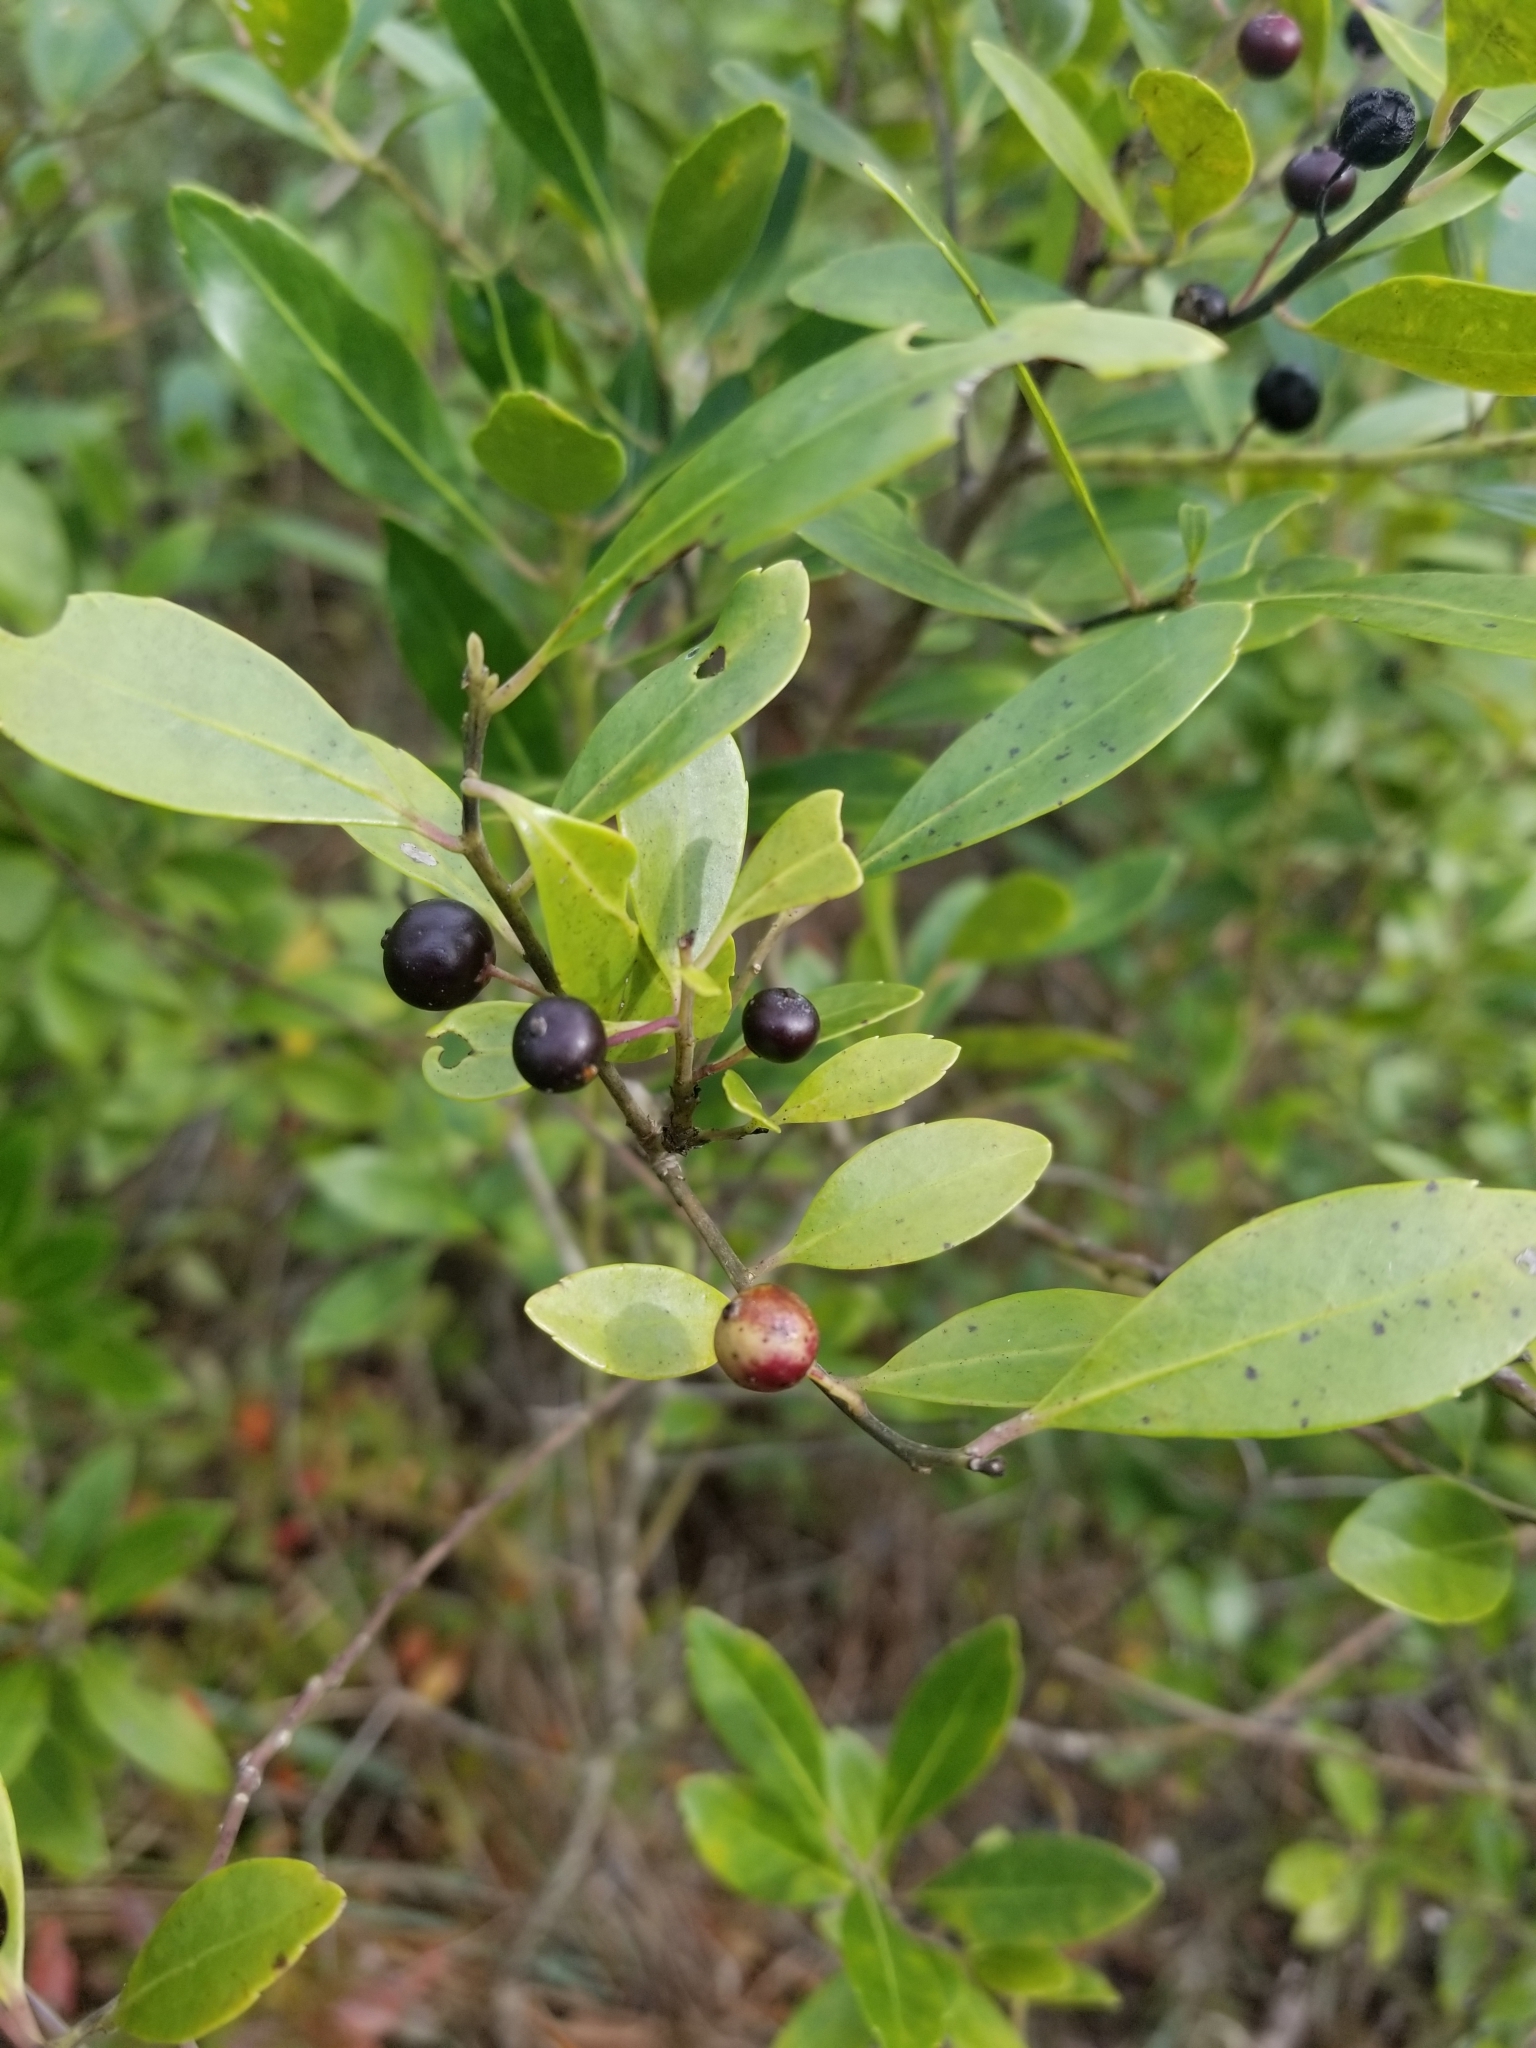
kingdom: Plantae
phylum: Tracheophyta
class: Magnoliopsida
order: Aquifoliales
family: Aquifoliaceae
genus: Ilex
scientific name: Ilex glabra
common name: Bitter gallberry
